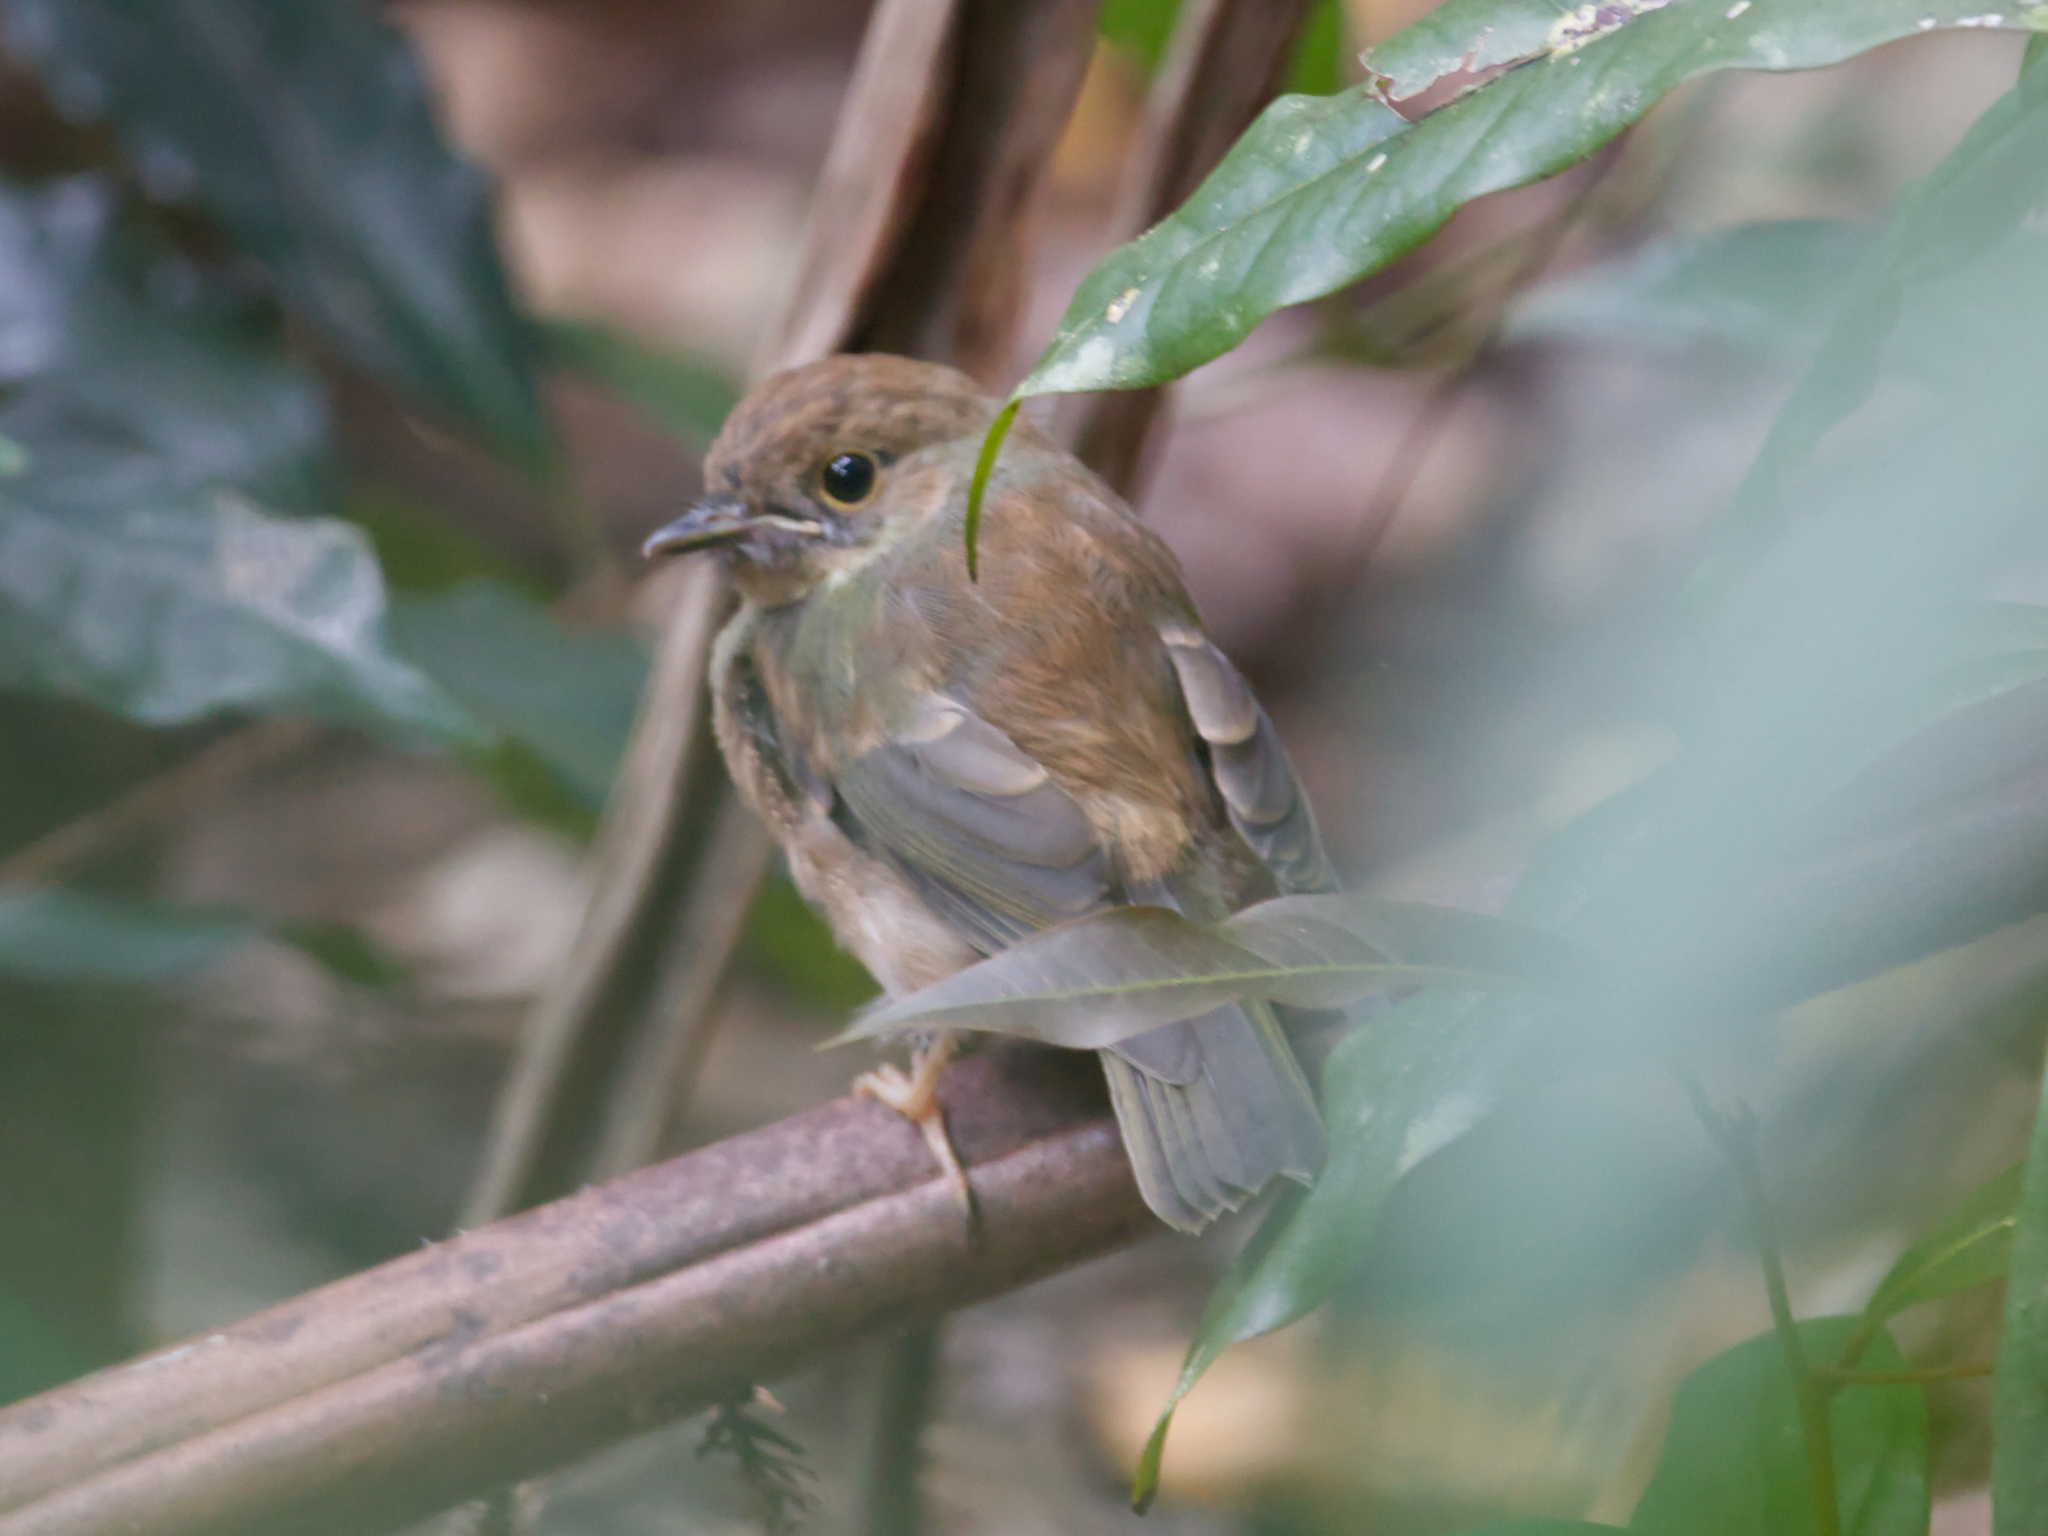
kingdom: Animalia
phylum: Chordata
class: Aves
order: Passeriformes
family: Petroicidae
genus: Eopsaltria
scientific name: Eopsaltria
